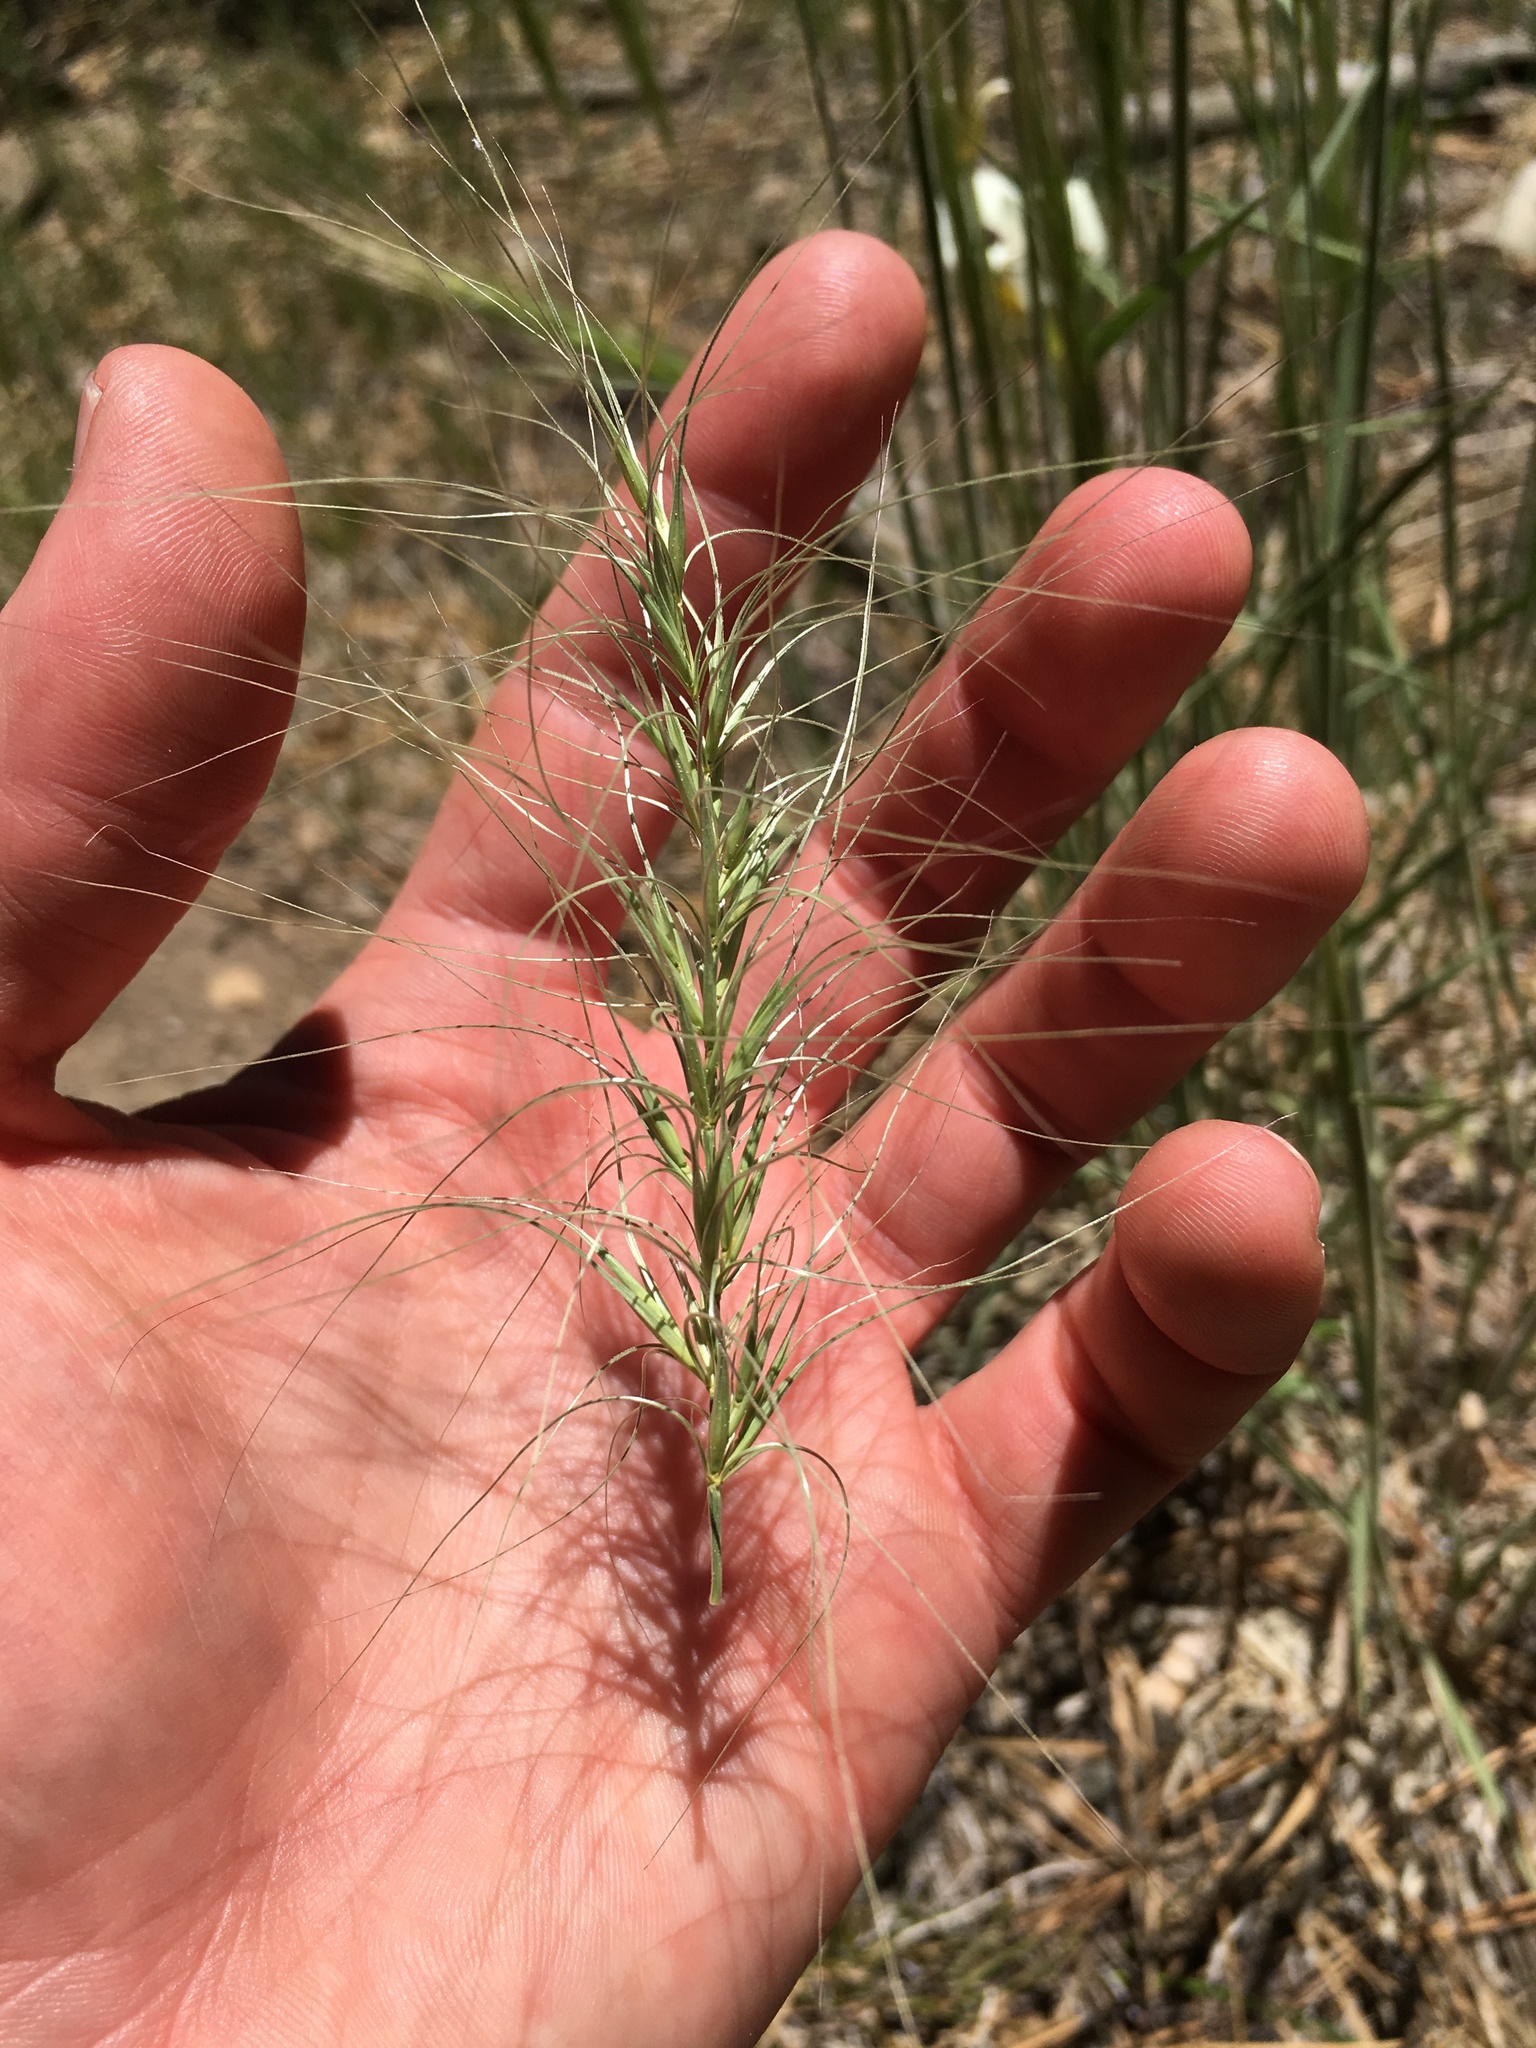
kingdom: Plantae
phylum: Tracheophyta
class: Liliopsida
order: Poales
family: Poaceae
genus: Elymus
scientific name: Elymus elymoides
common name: Bottlebrush squirreltail
